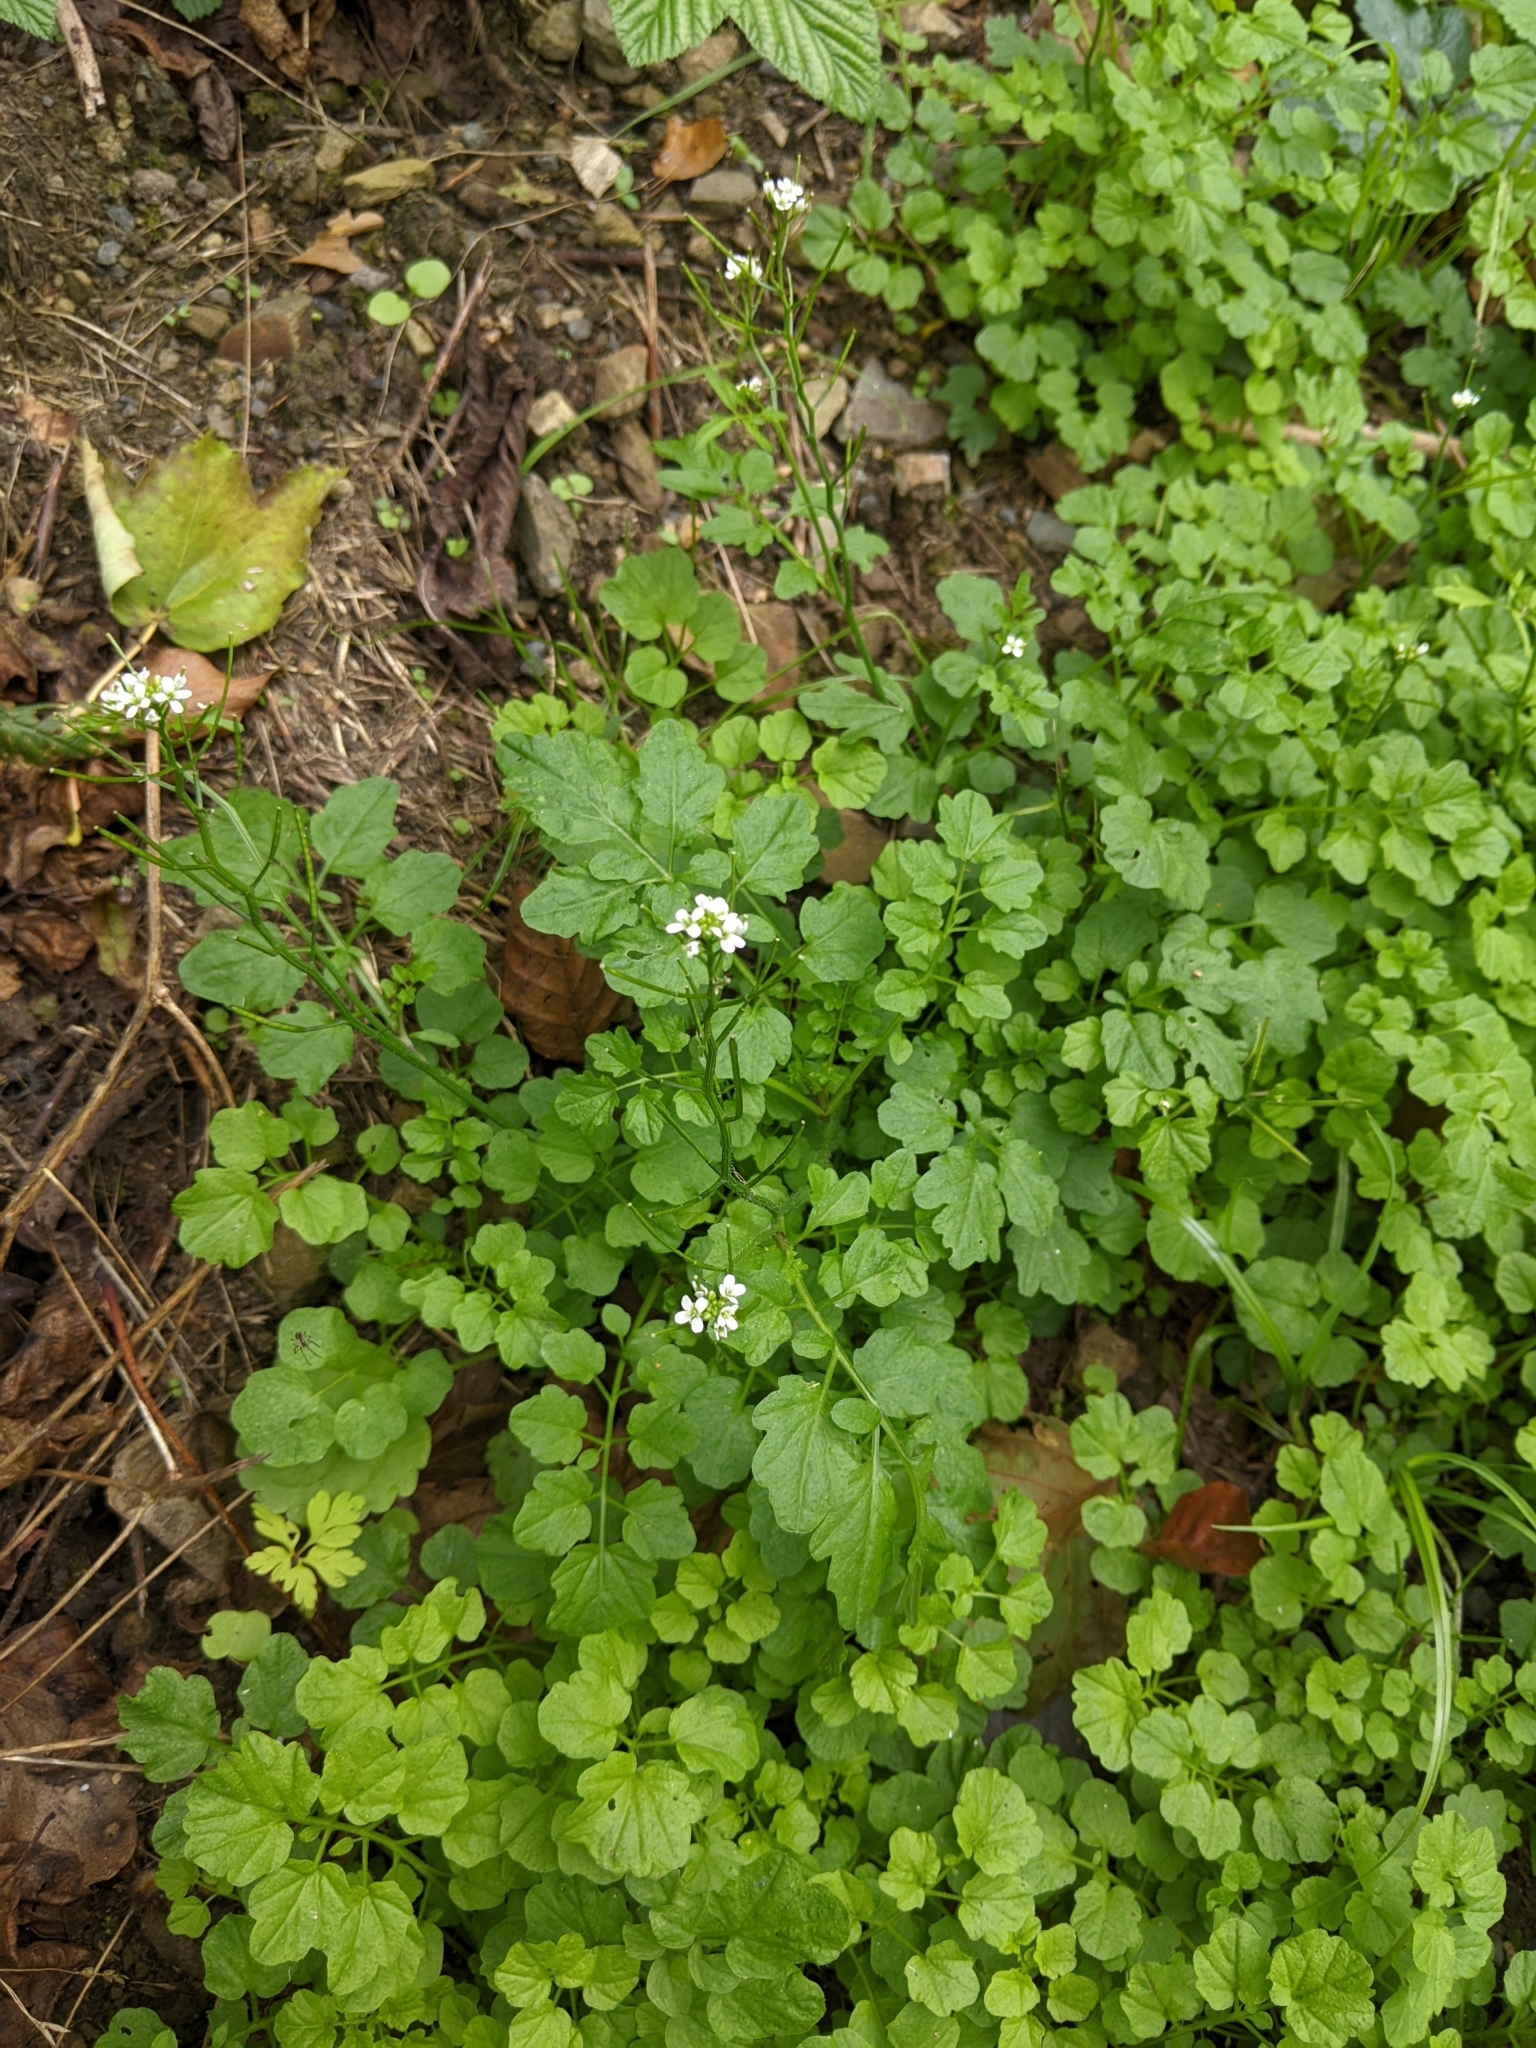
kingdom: Plantae
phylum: Tracheophyta
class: Magnoliopsida
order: Brassicales
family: Brassicaceae
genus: Cardamine
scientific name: Cardamine flexuosa
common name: Woodland bittercress
